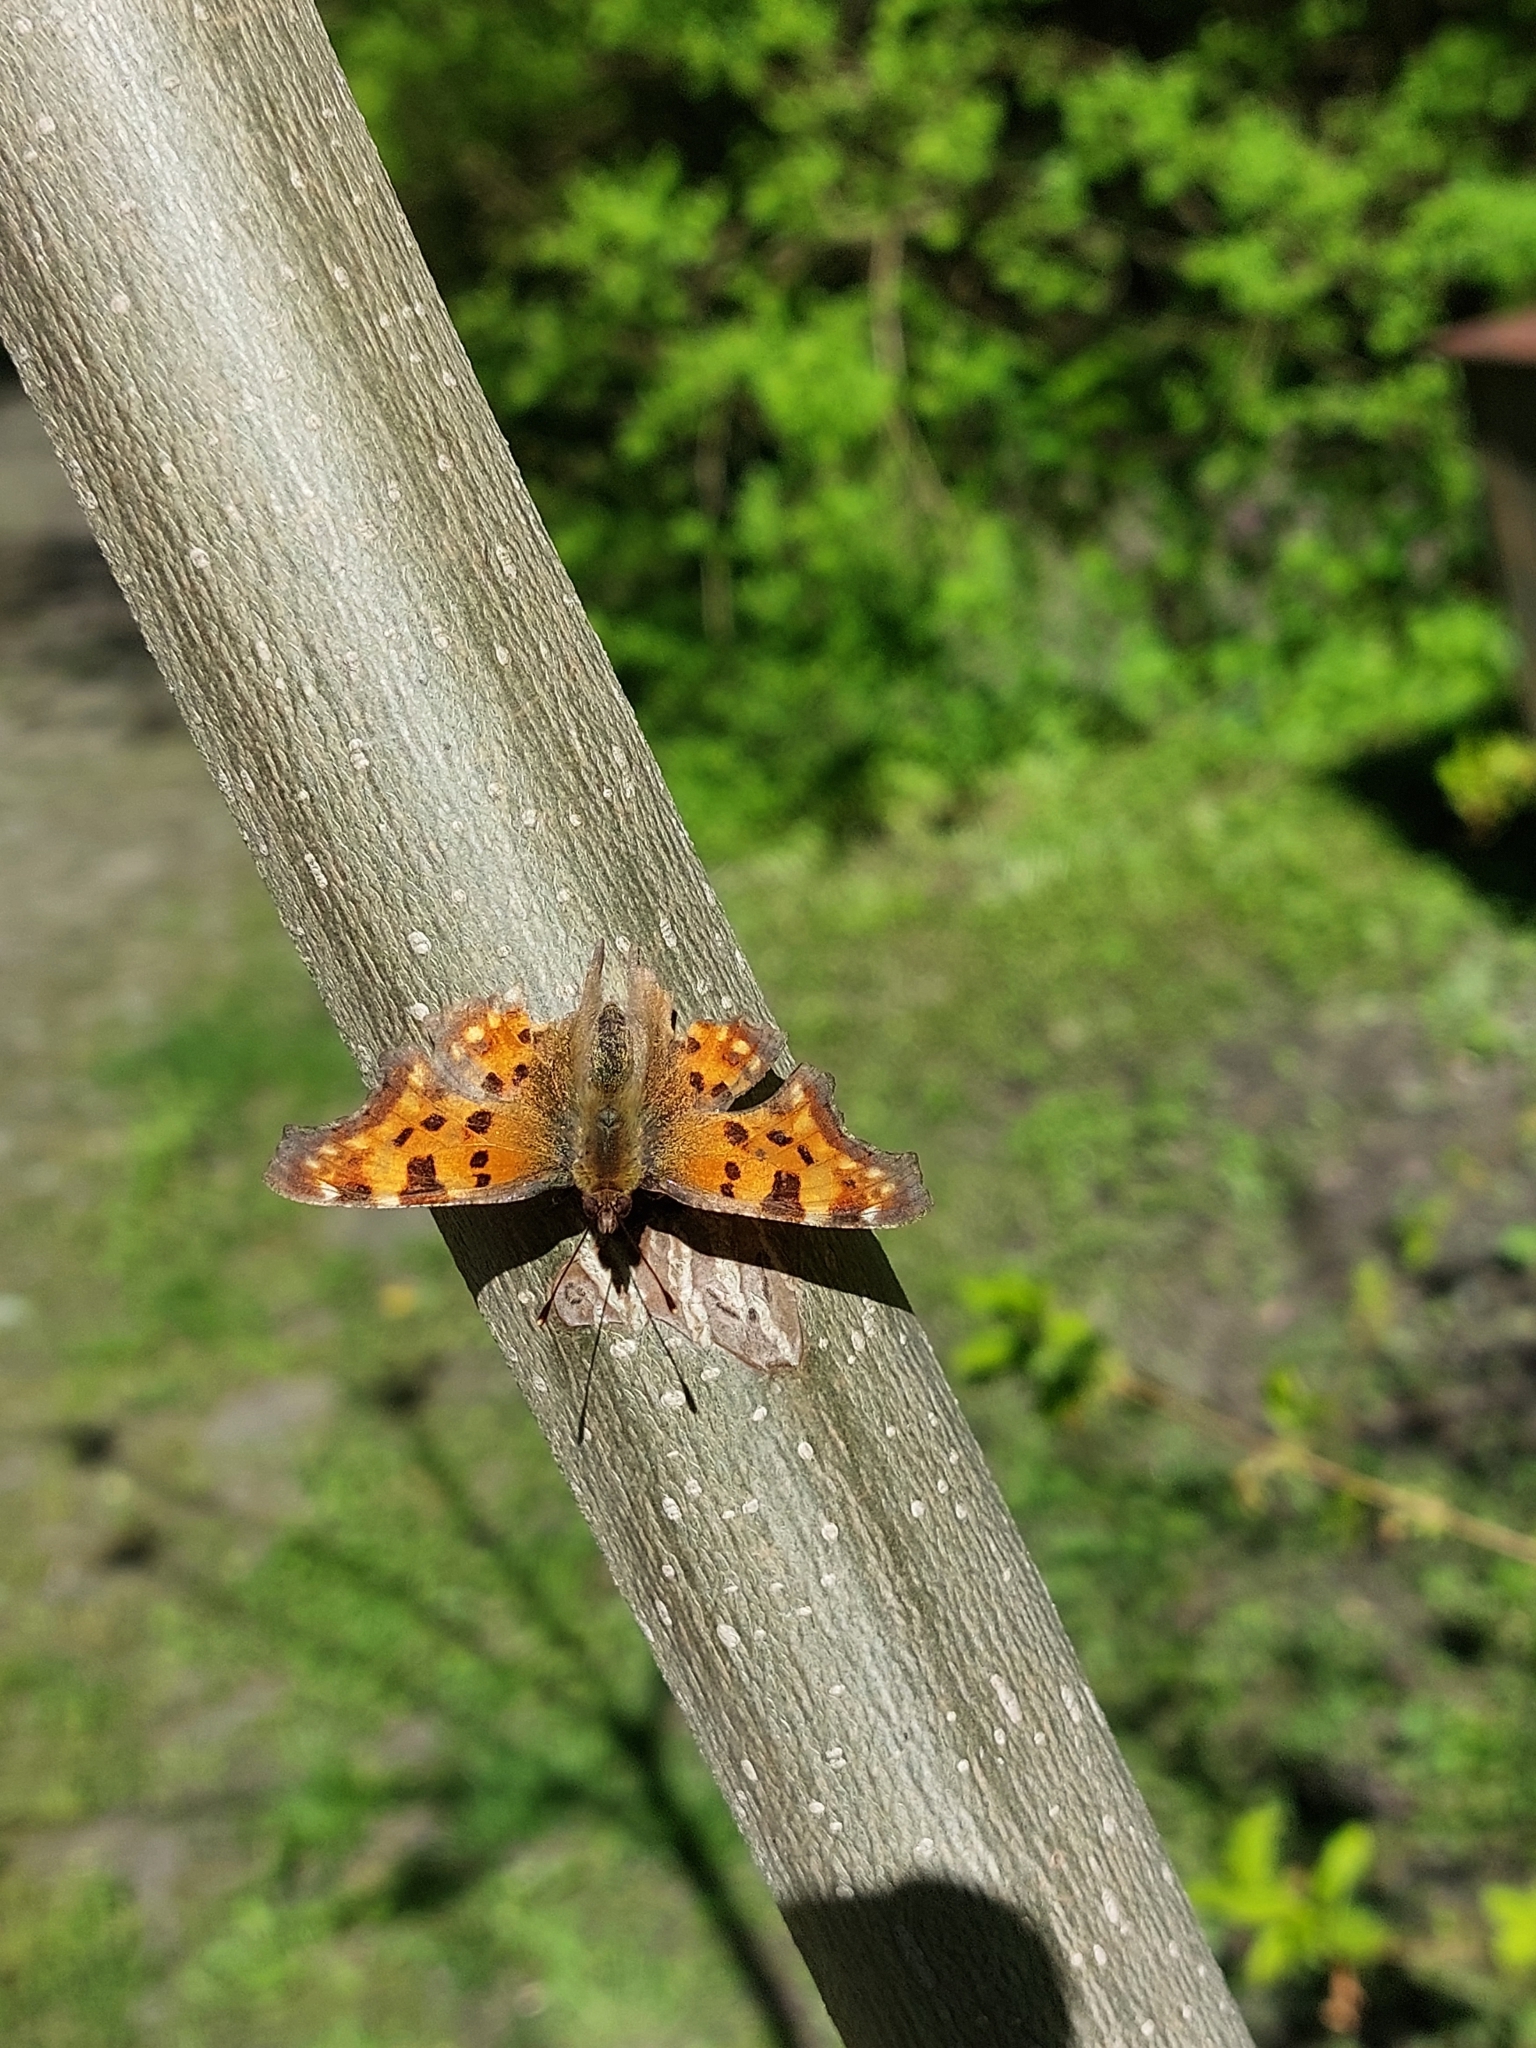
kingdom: Animalia
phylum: Arthropoda
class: Insecta
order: Lepidoptera
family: Nymphalidae
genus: Polygonia
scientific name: Polygonia c-album
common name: Comma
